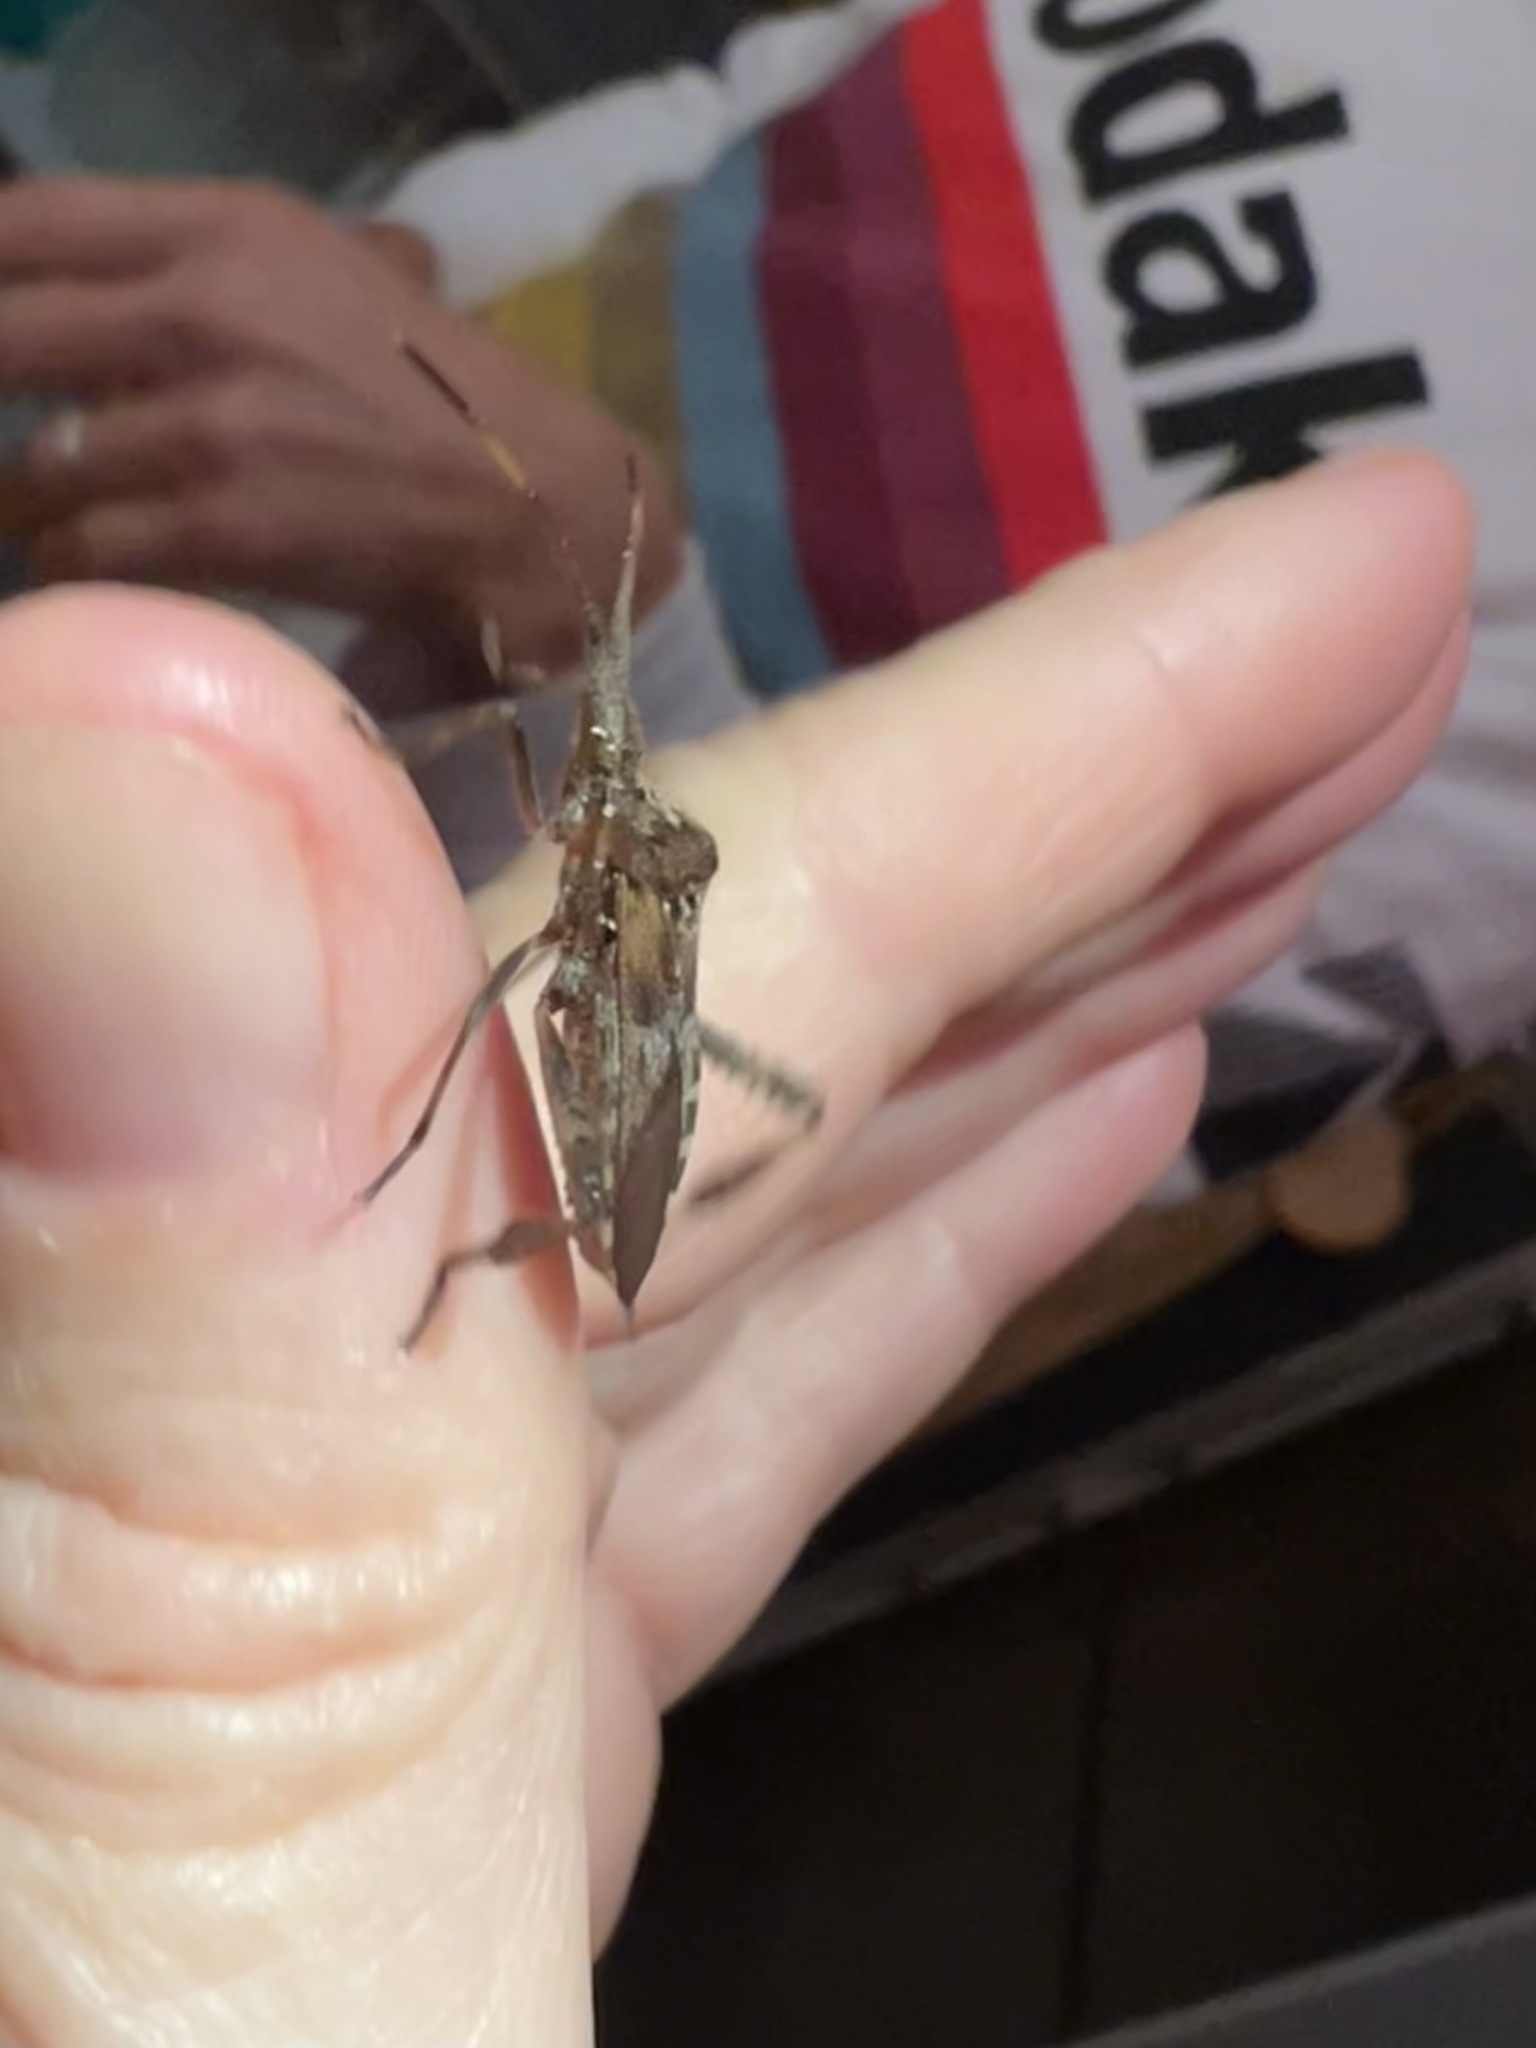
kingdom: Animalia
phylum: Arthropoda
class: Insecta
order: Hemiptera
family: Coreidae
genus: Leptoglossus
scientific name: Leptoglossus occidentalis
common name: Western conifer-seed bug
